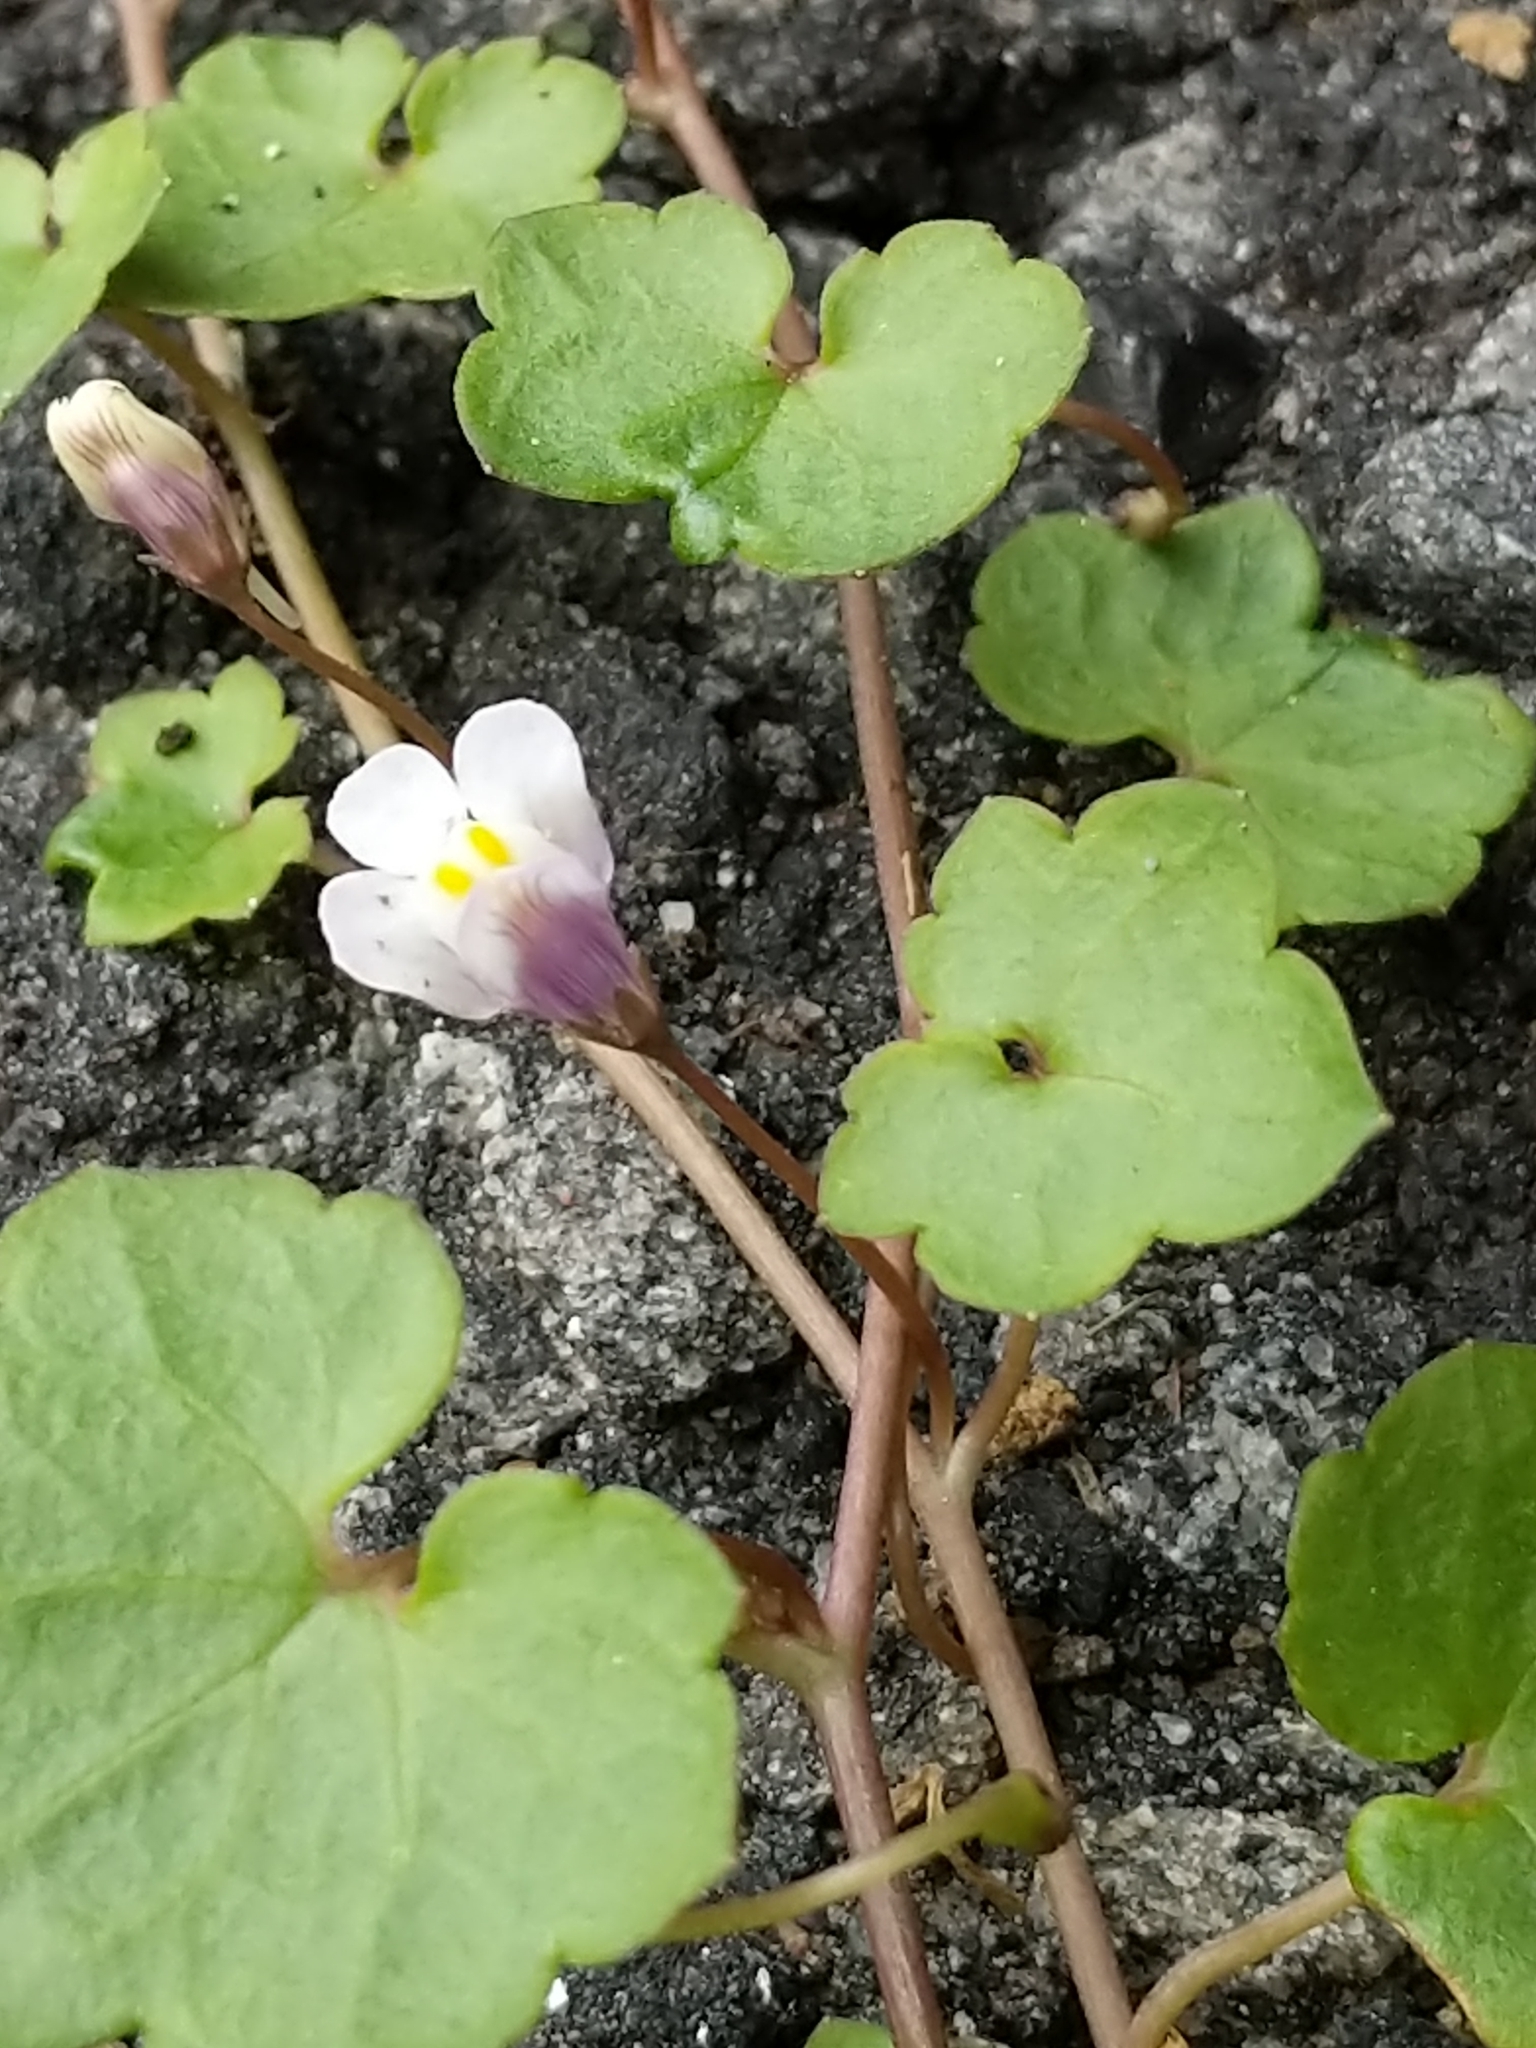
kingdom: Plantae
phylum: Tracheophyta
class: Magnoliopsida
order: Lamiales
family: Plantaginaceae
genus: Cymbalaria
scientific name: Cymbalaria muralis
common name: Ivy-leaved toadflax
